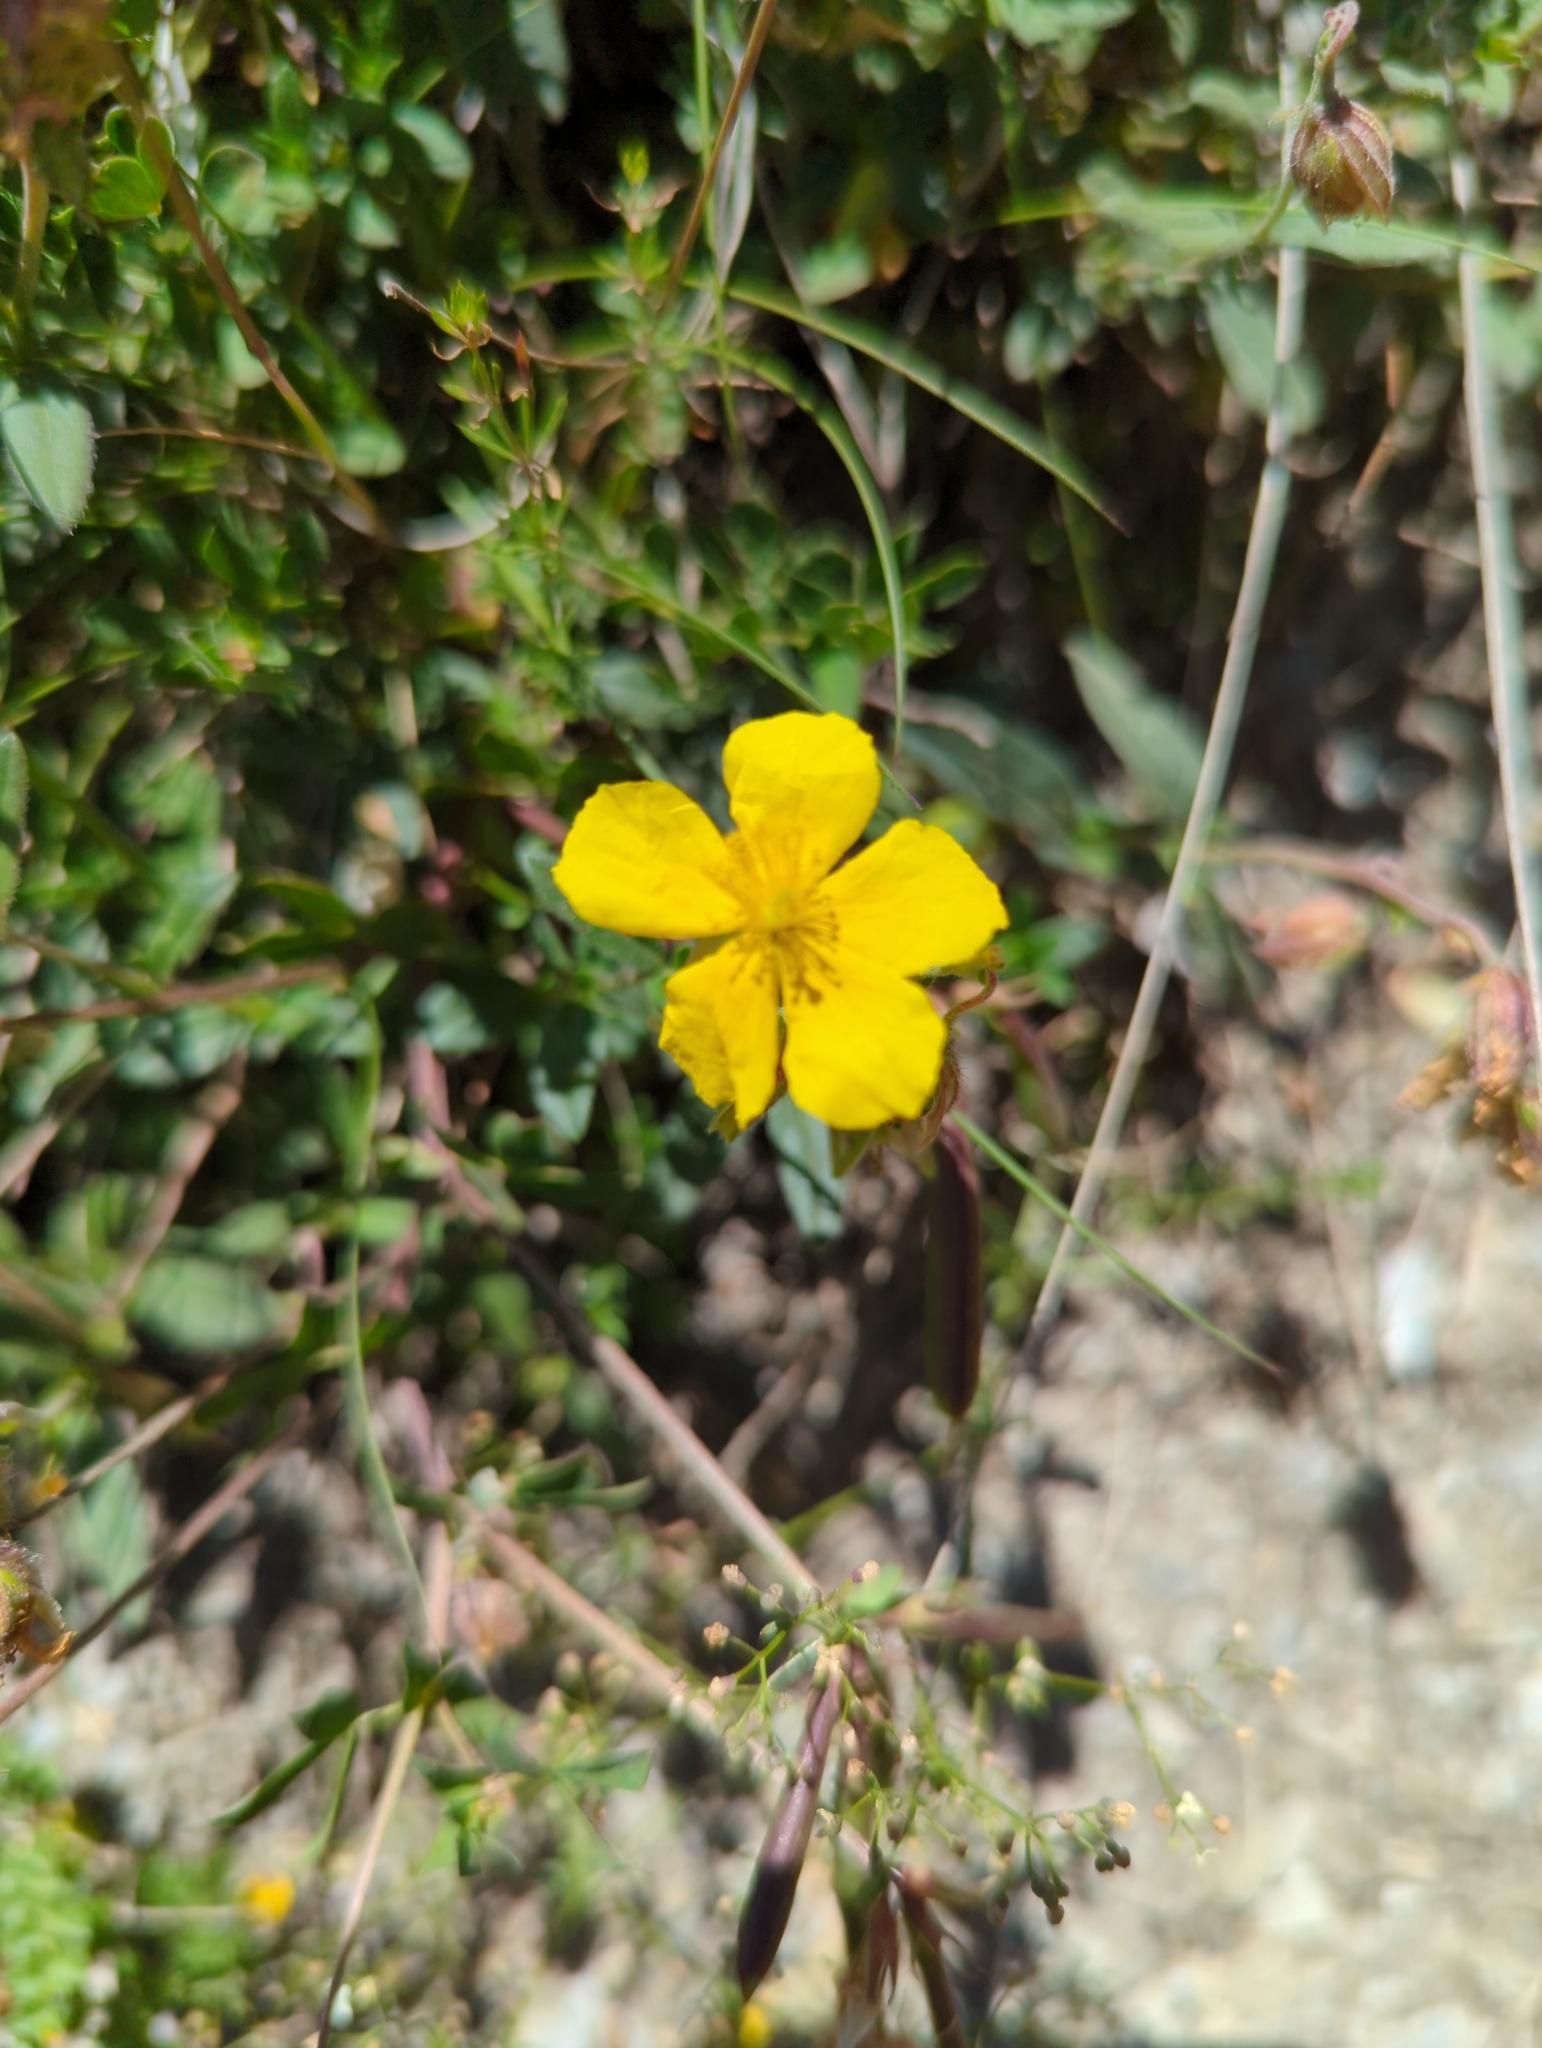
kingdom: Plantae
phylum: Tracheophyta
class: Magnoliopsida
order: Malvales
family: Cistaceae
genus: Helianthemum
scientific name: Helianthemum nummularium
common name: Common rock-rose
